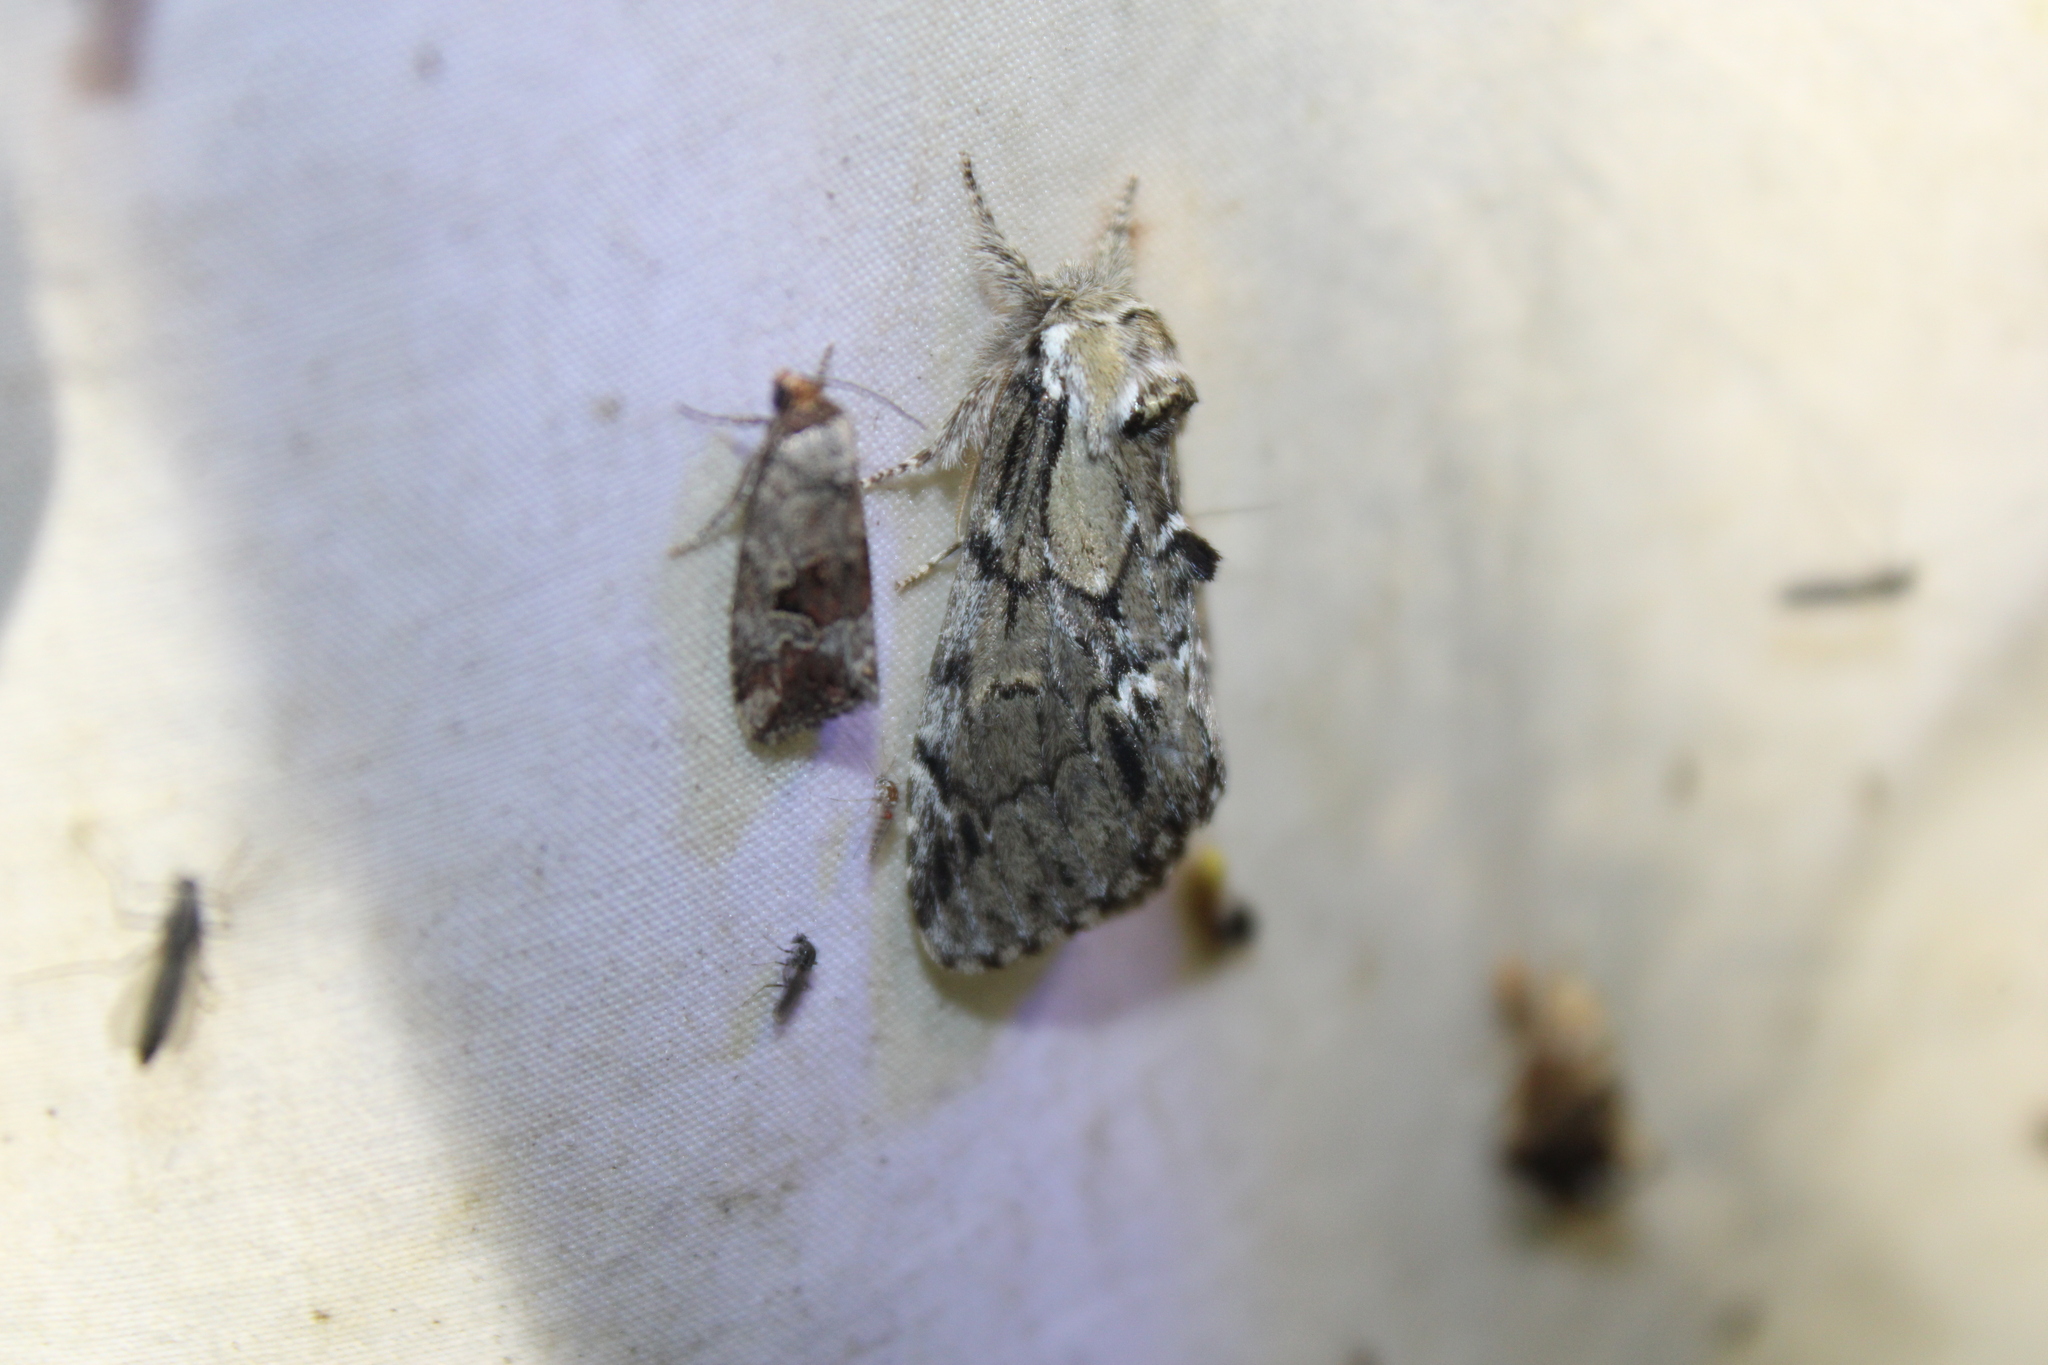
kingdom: Animalia
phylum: Arthropoda
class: Insecta
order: Lepidoptera
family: Notodontidae
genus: Paraeschra
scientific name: Paraeschra georgica
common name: Georgian prominent
